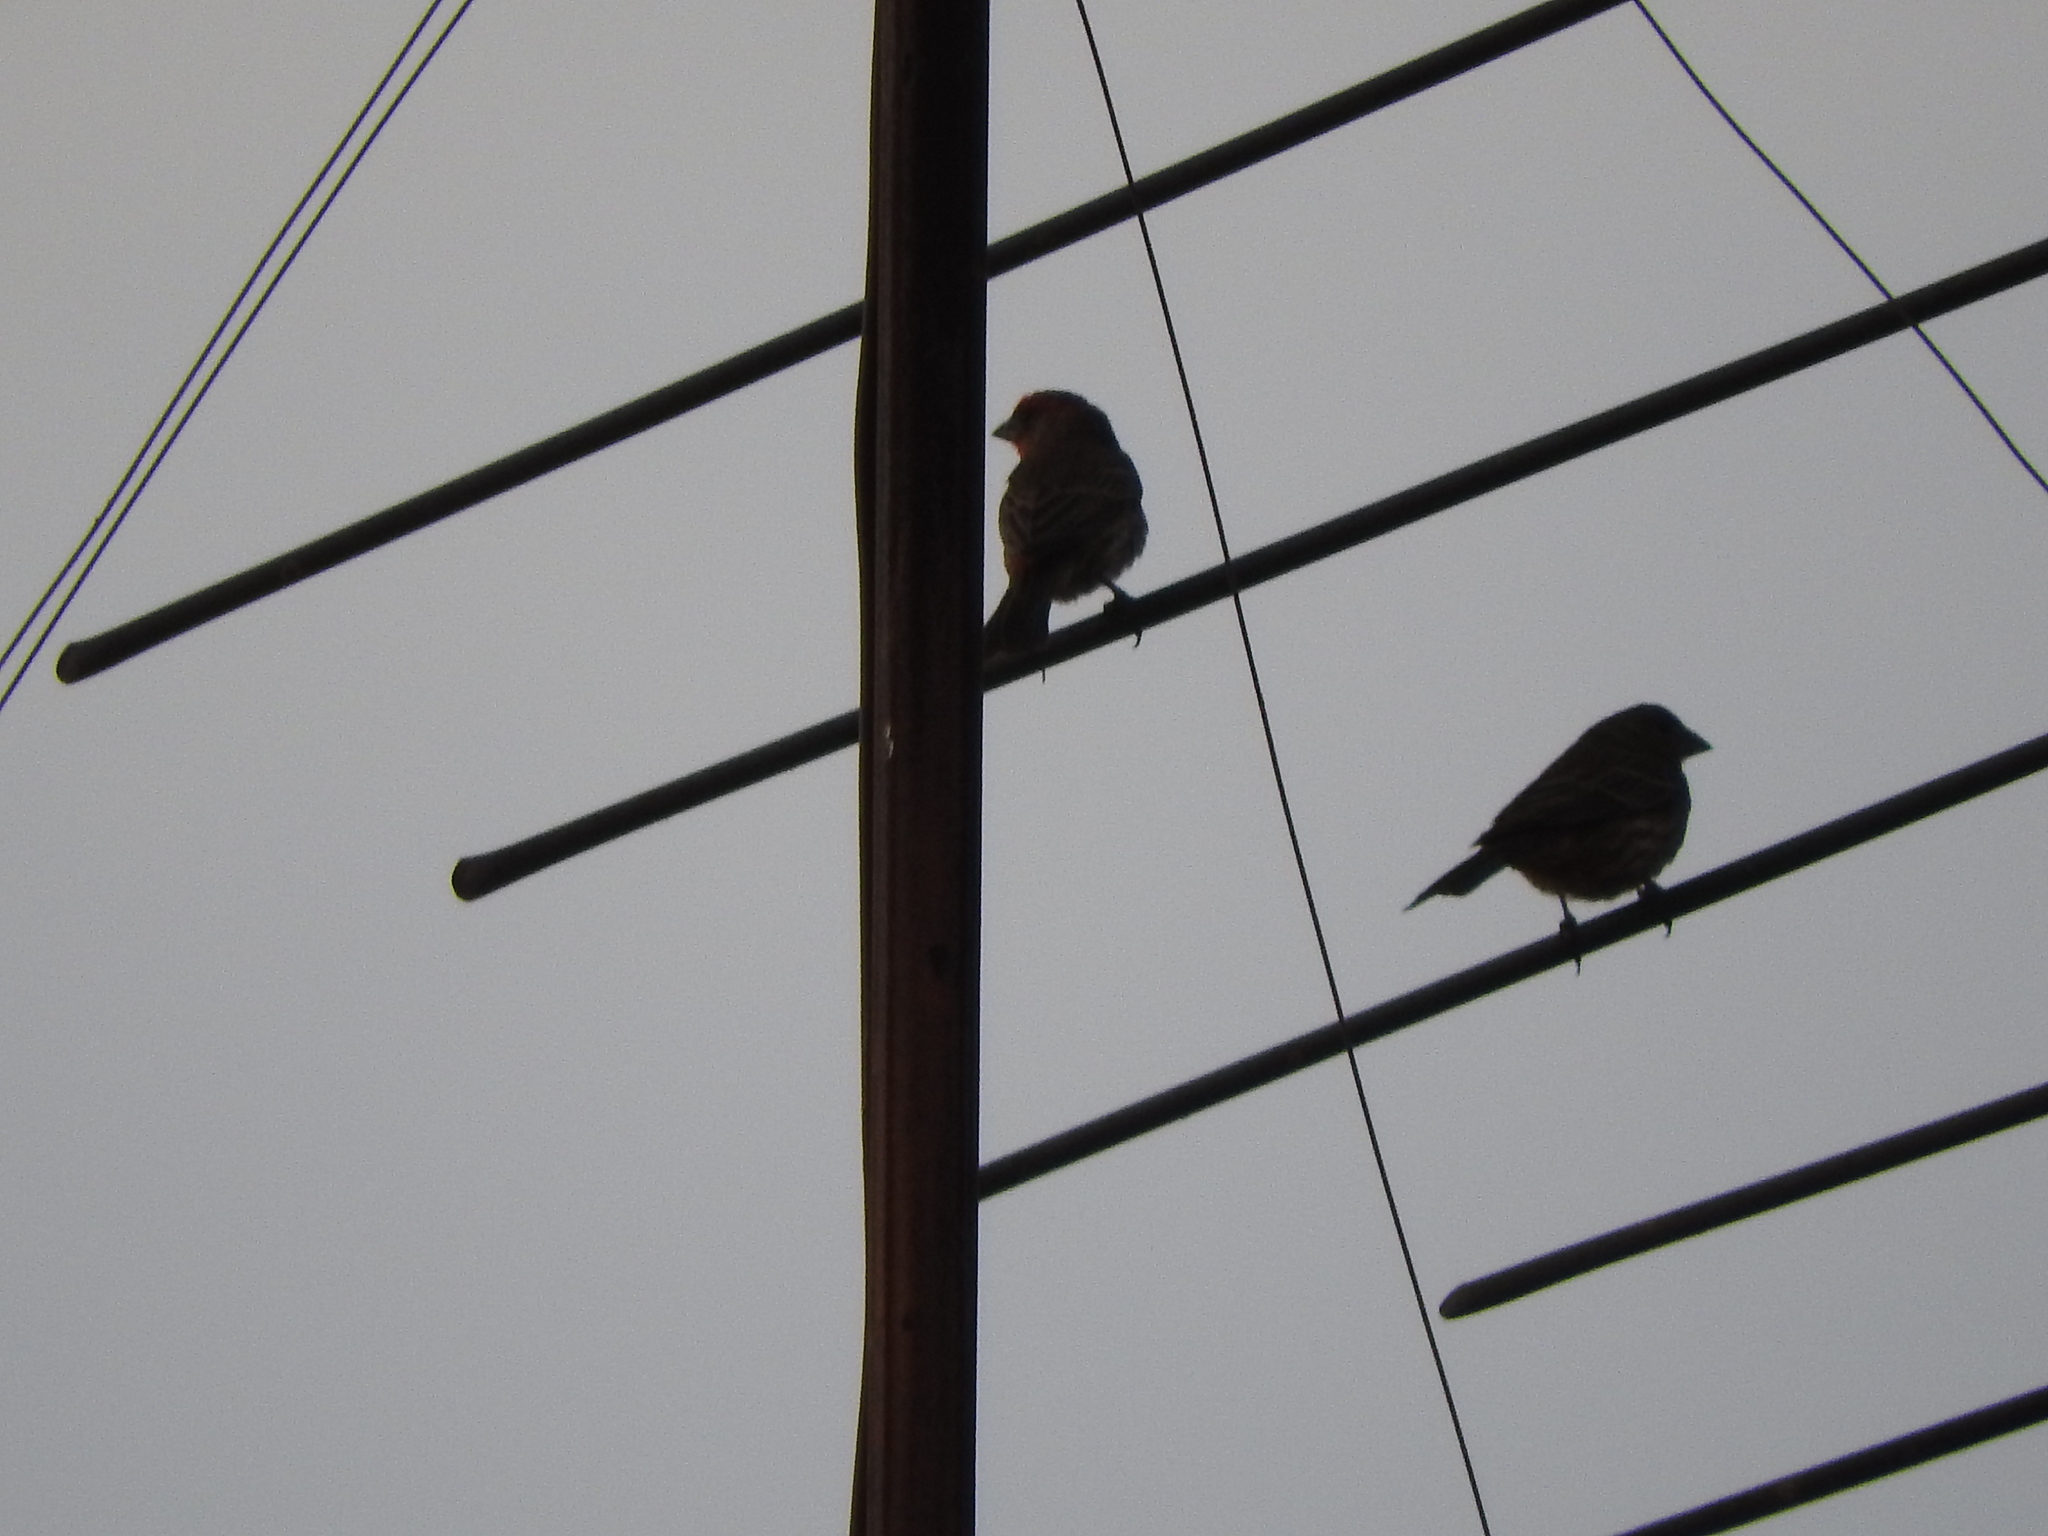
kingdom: Animalia
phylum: Chordata
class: Aves
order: Passeriformes
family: Fringillidae
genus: Haemorhous
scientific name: Haemorhous mexicanus
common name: House finch
